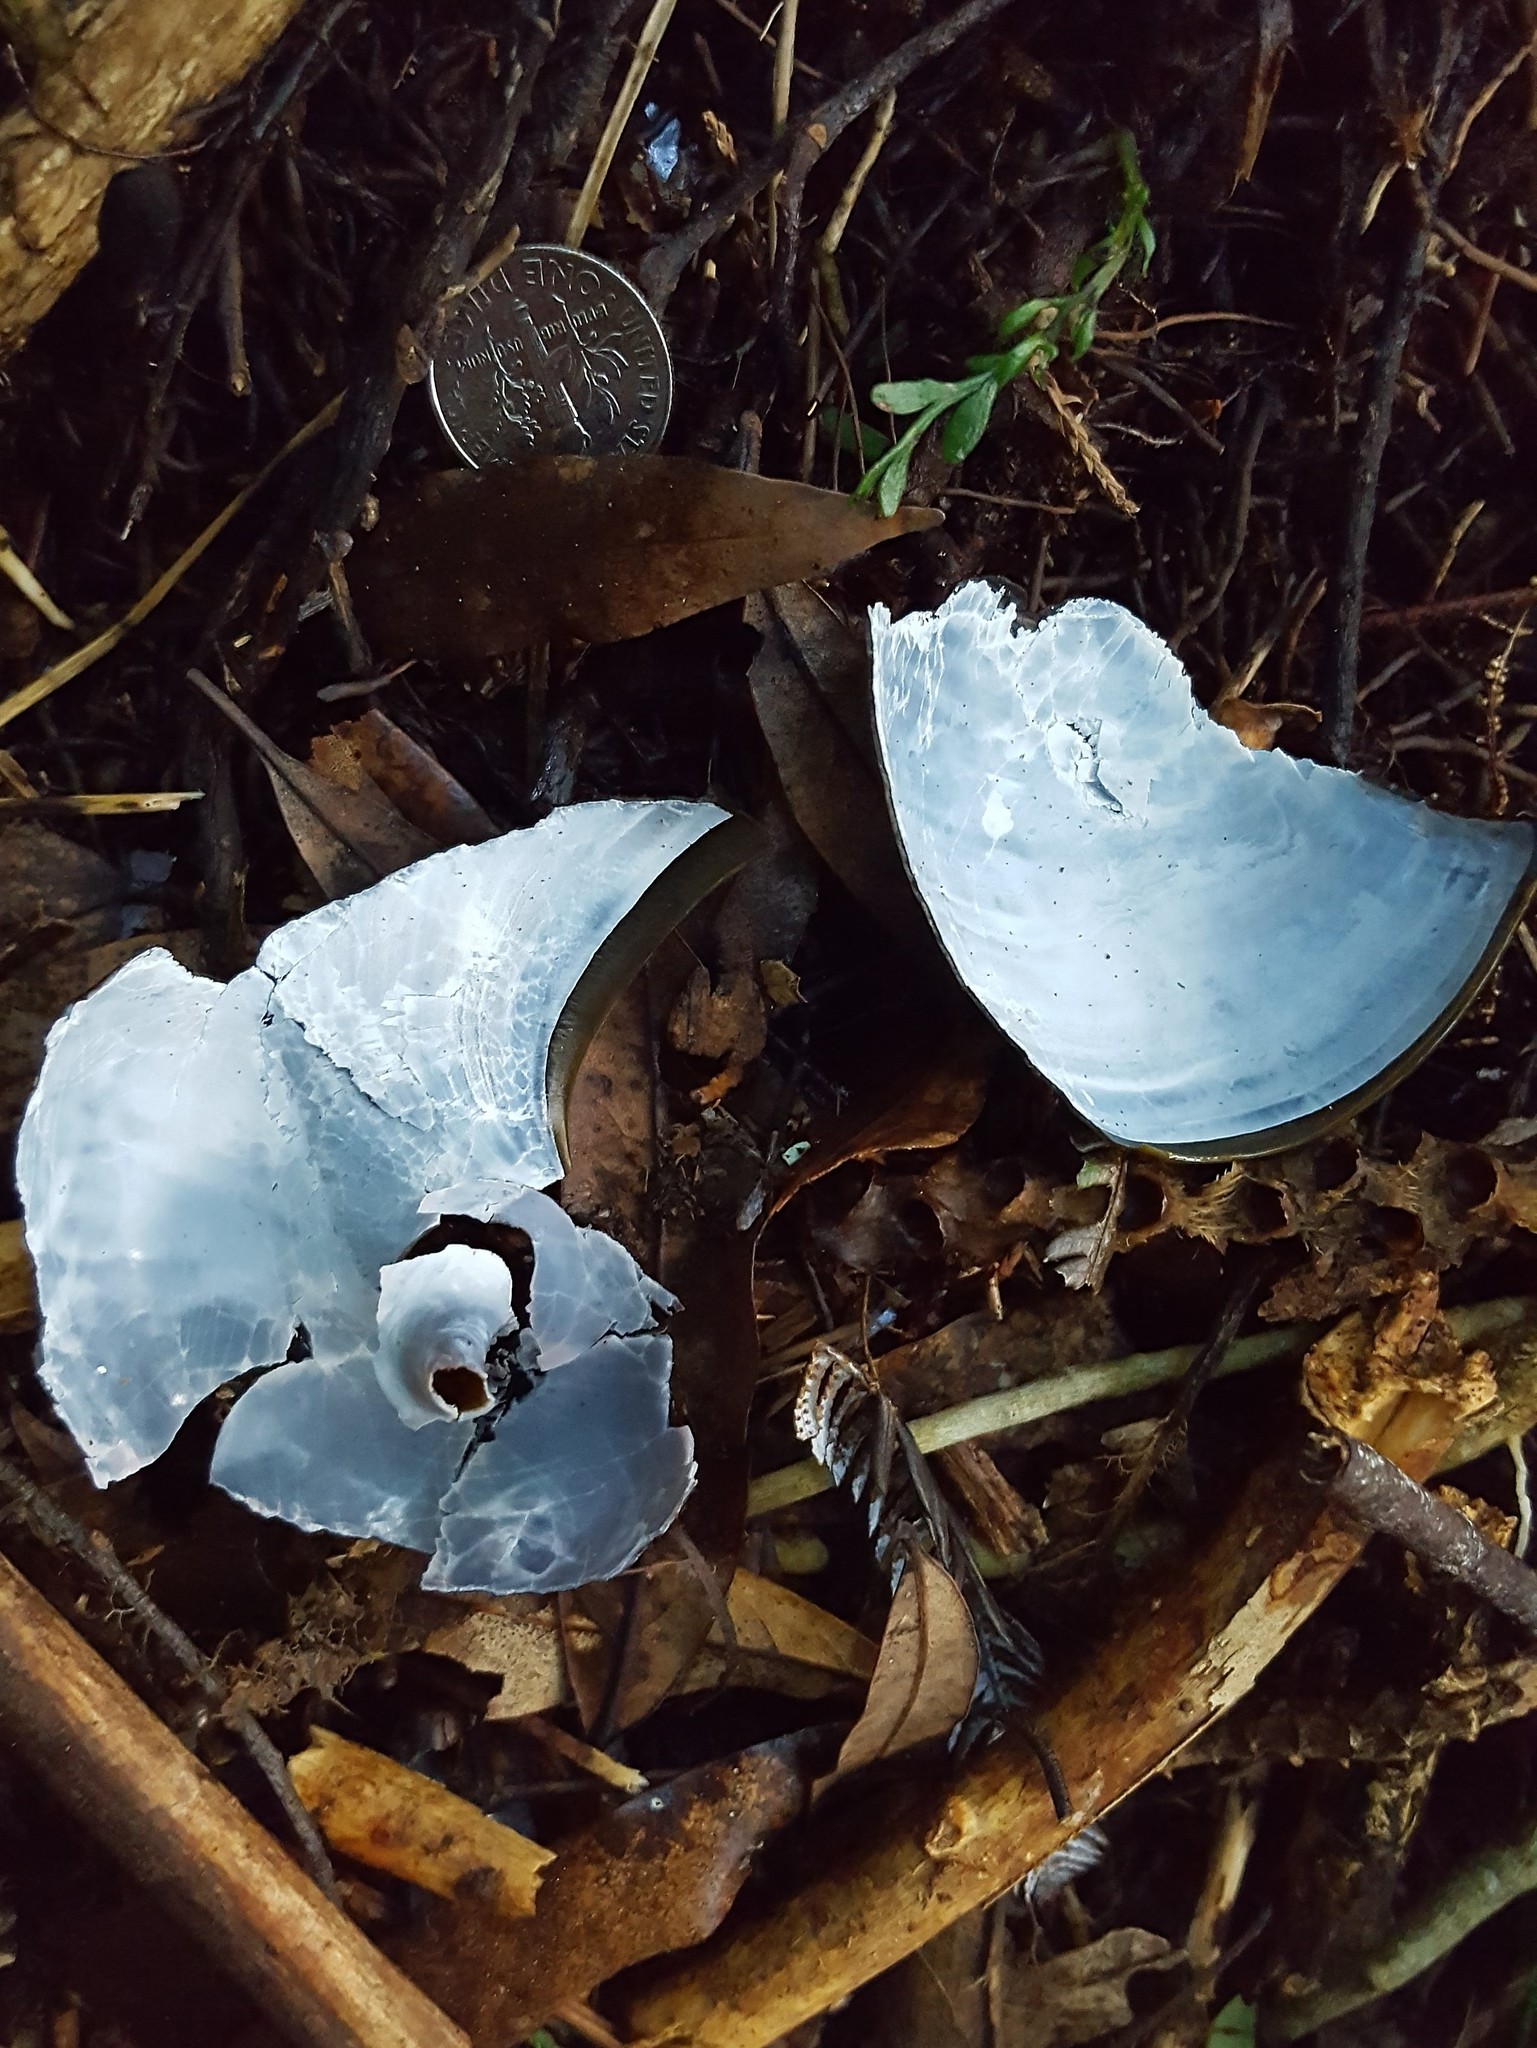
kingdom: Animalia
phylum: Mollusca
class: Gastropoda
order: Stylommatophora
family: Rhytididae
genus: Paryphanta
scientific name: Paryphanta busbyi
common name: Kauri snail
